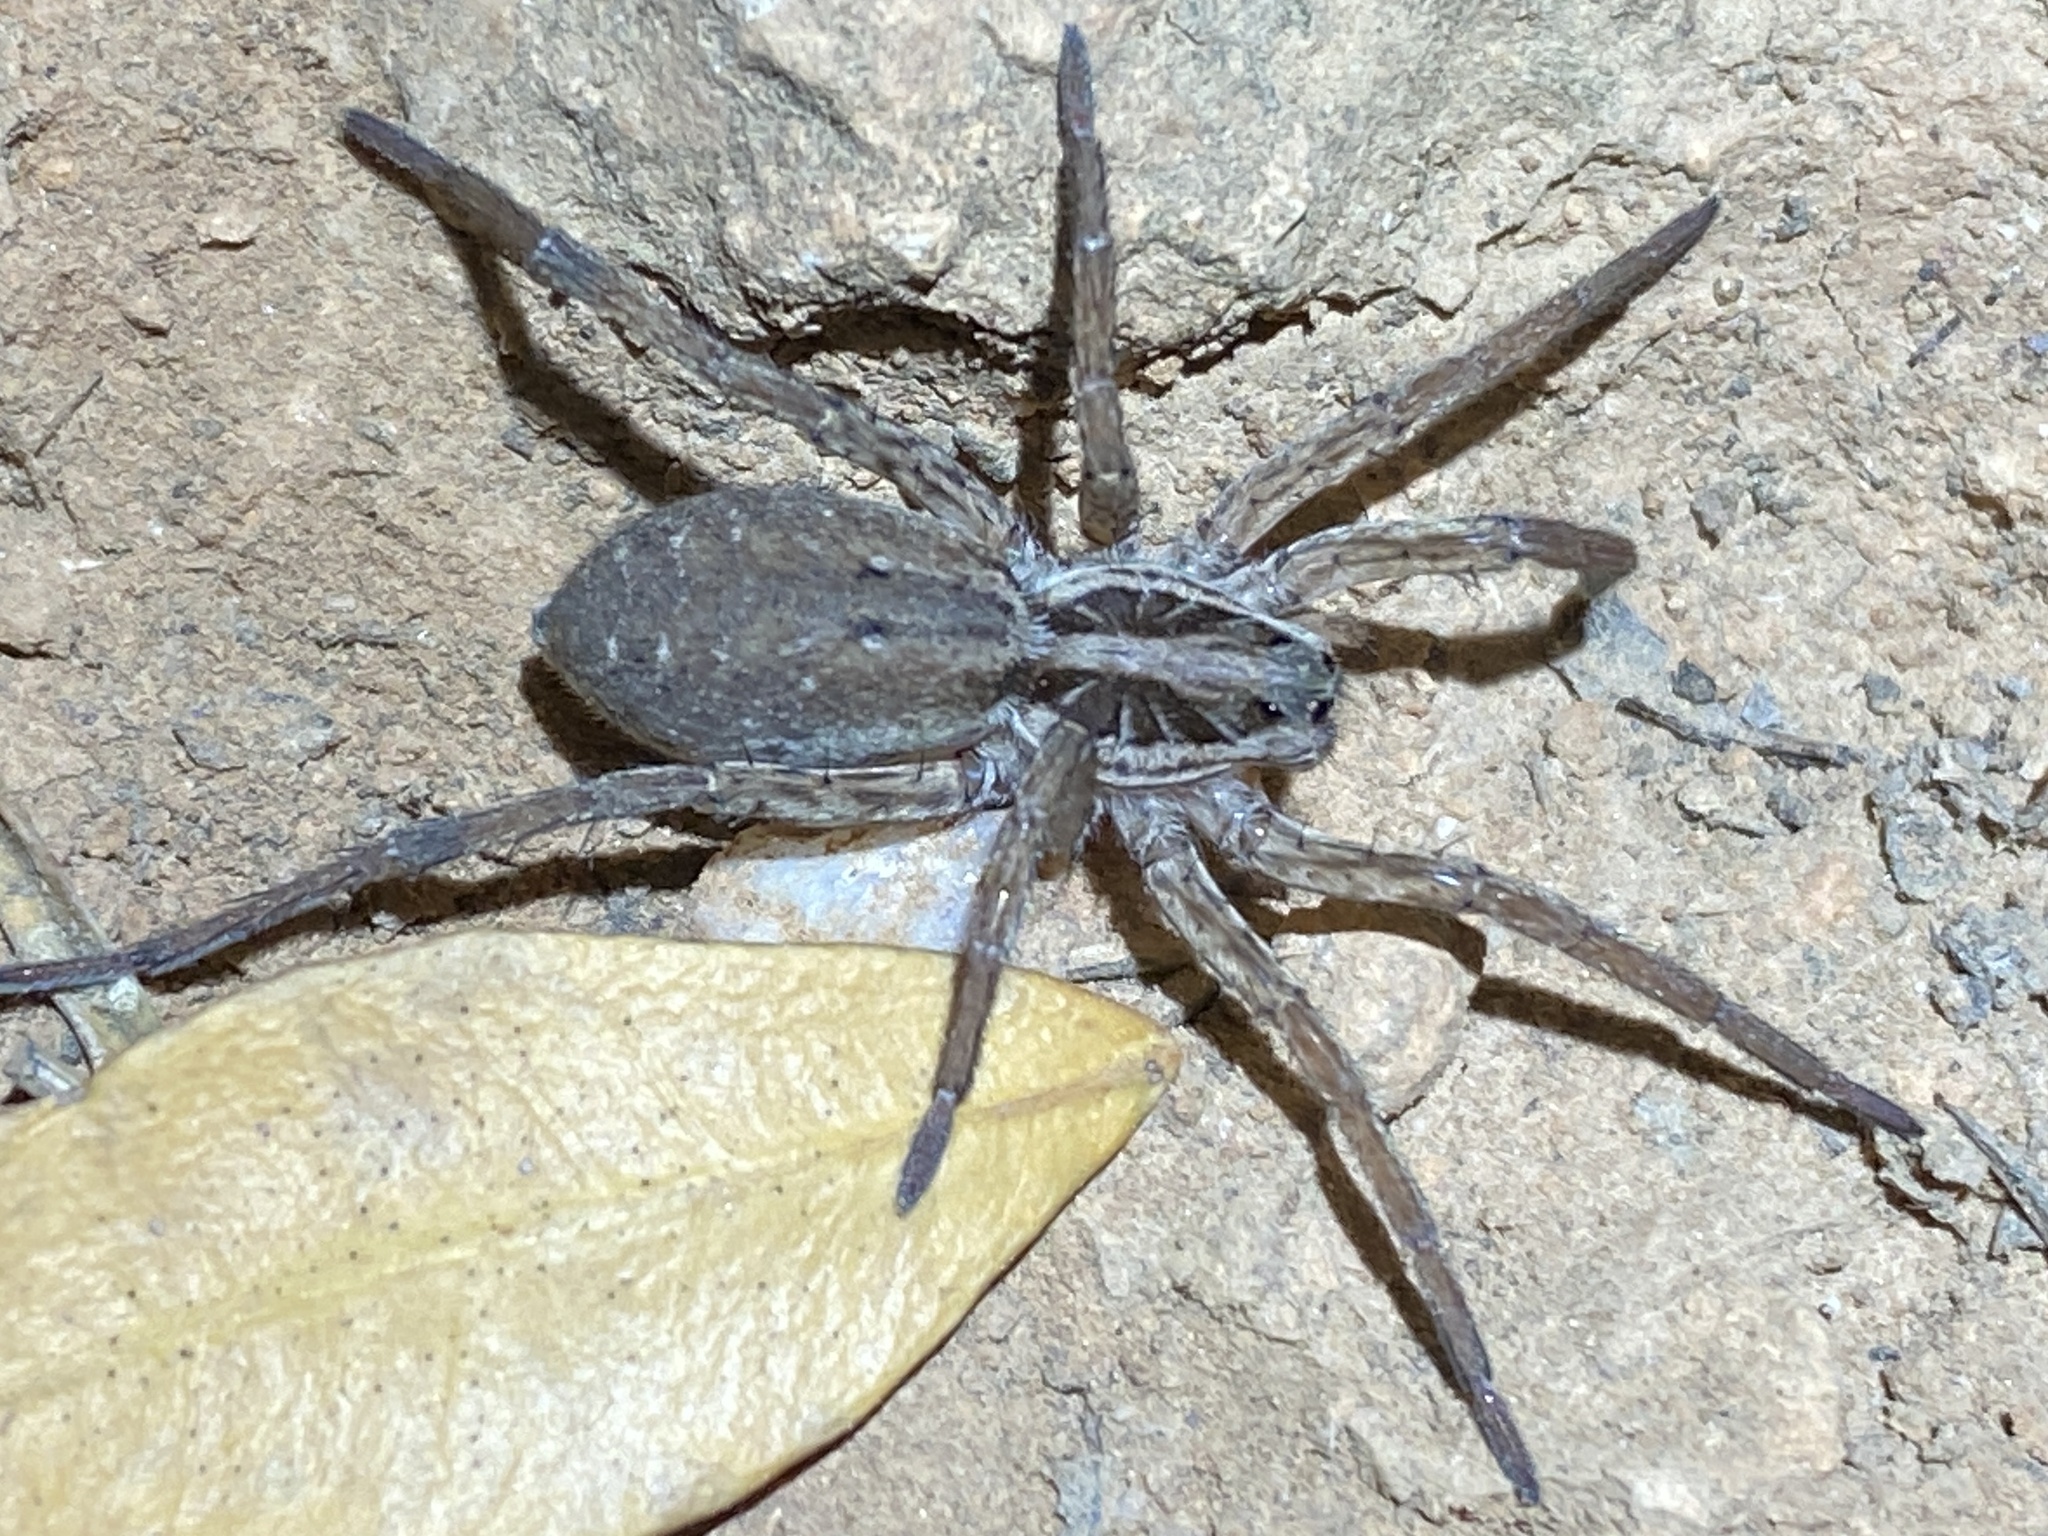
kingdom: Animalia
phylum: Arthropoda
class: Arachnida
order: Araneae
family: Lycosidae
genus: Hogna
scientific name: Hogna radiata
